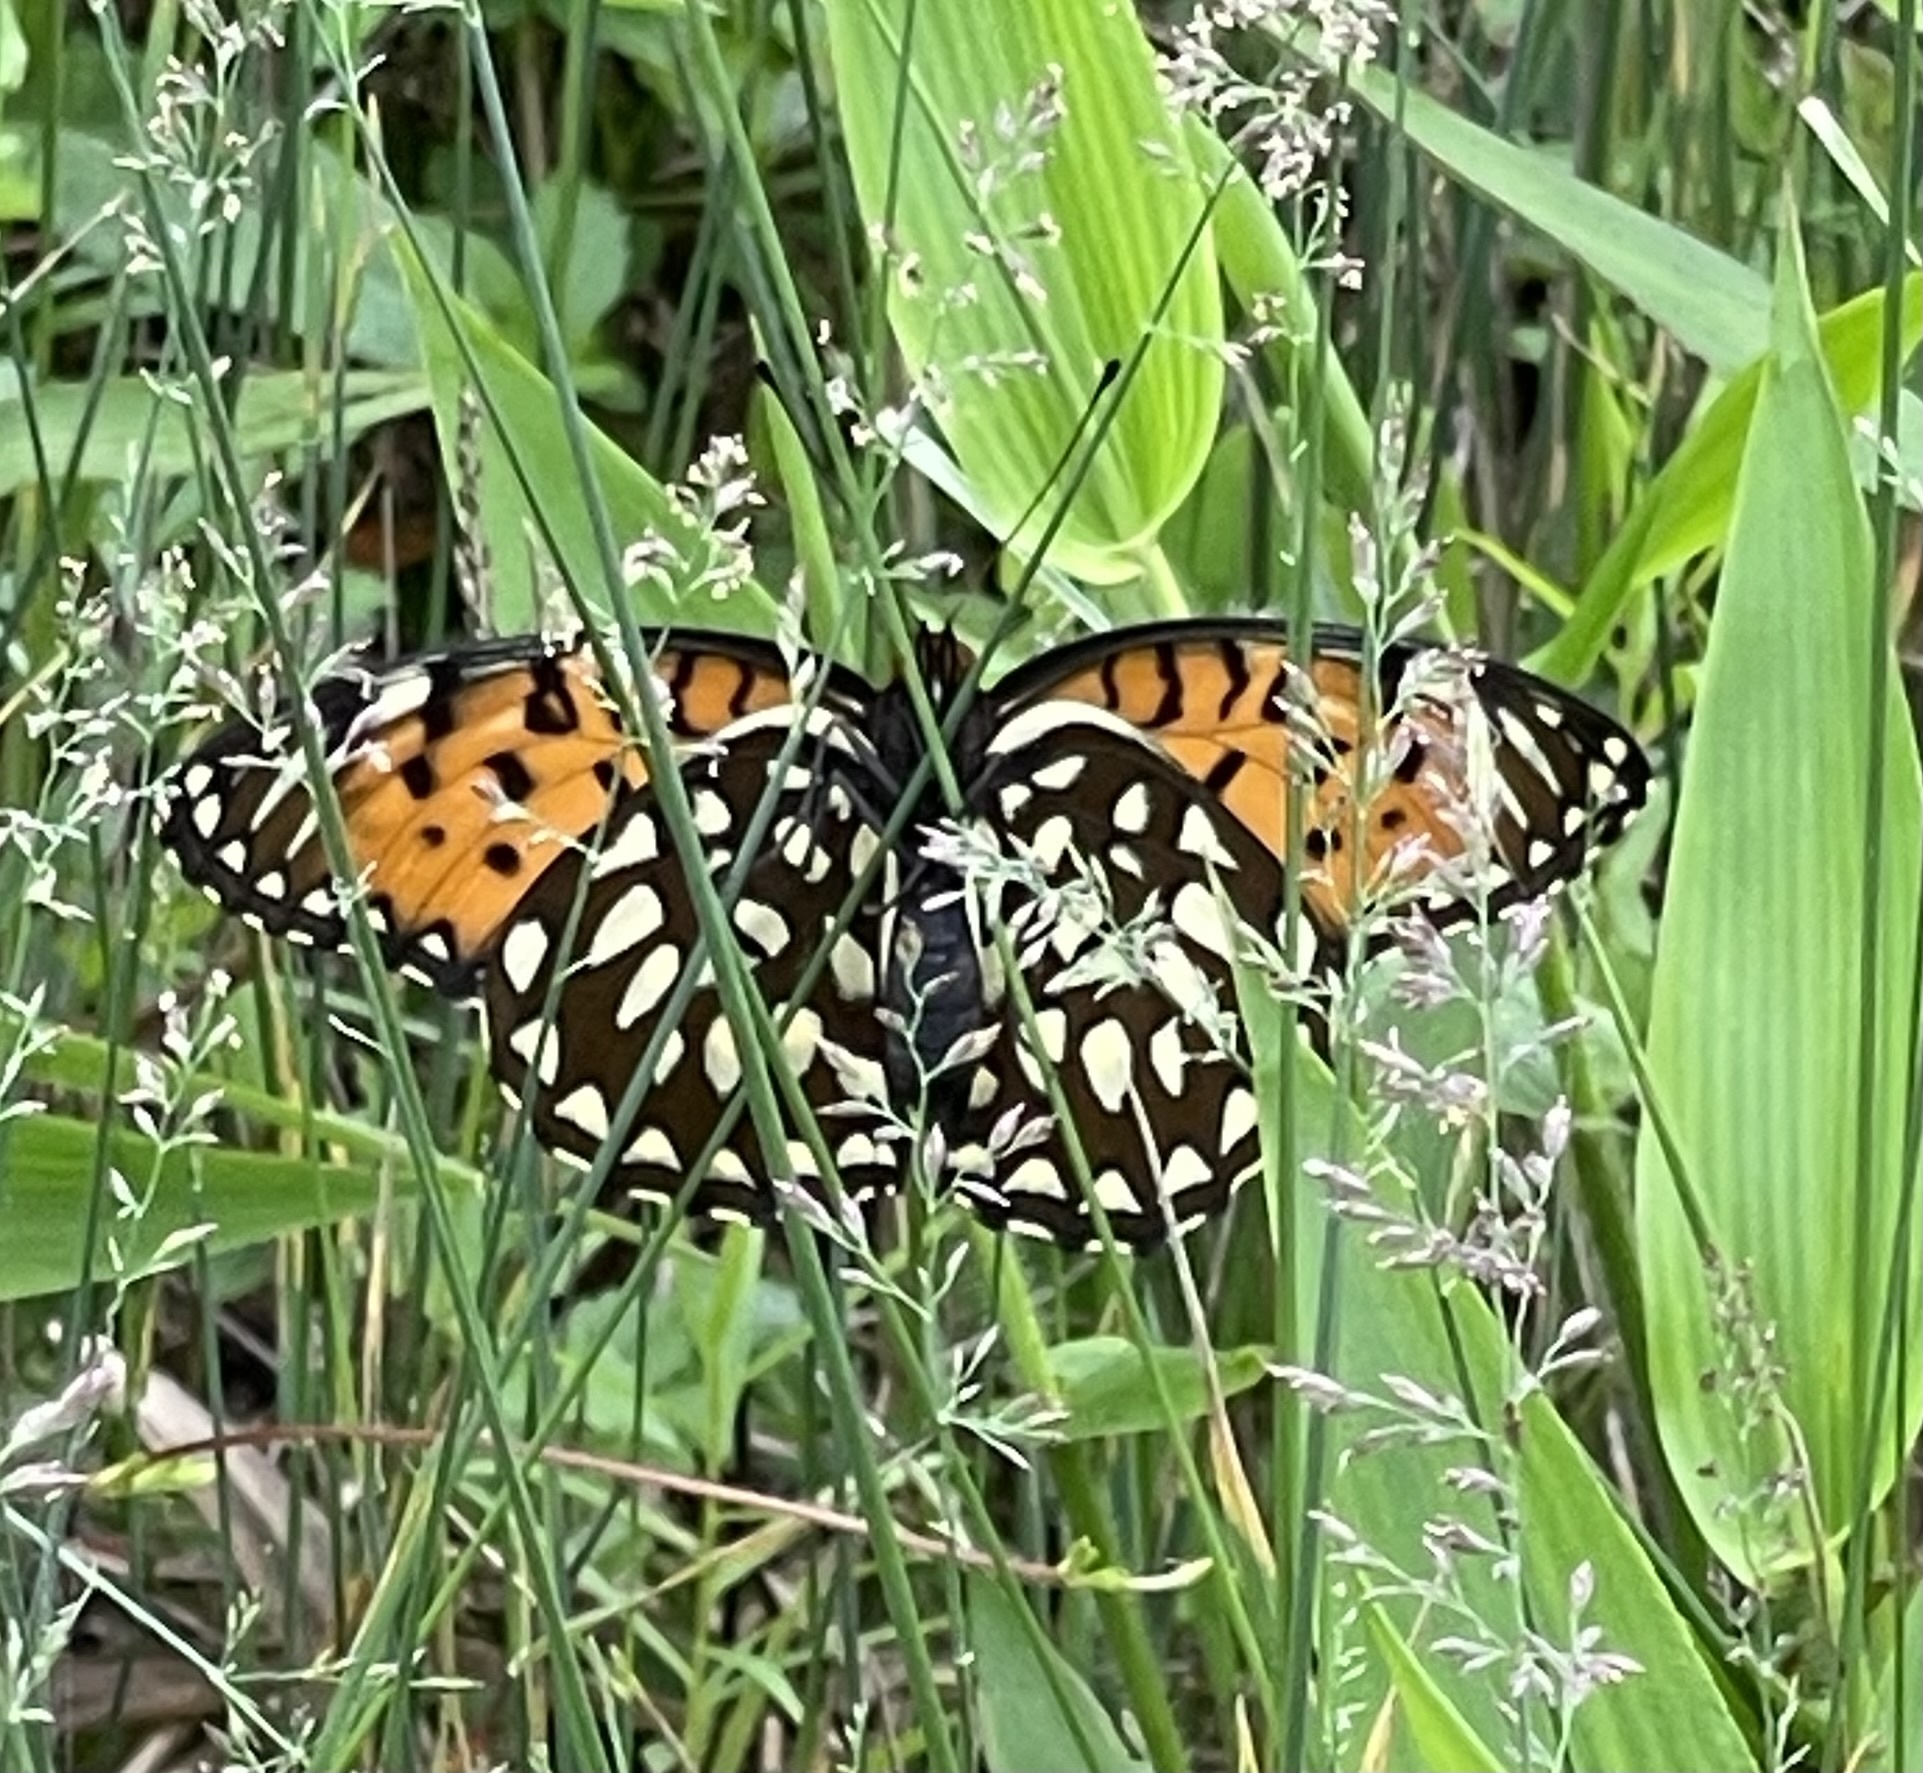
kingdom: Animalia
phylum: Arthropoda
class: Insecta
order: Lepidoptera
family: Nymphalidae
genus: Speyeria
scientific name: Speyeria idalia
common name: Regal fritillary
